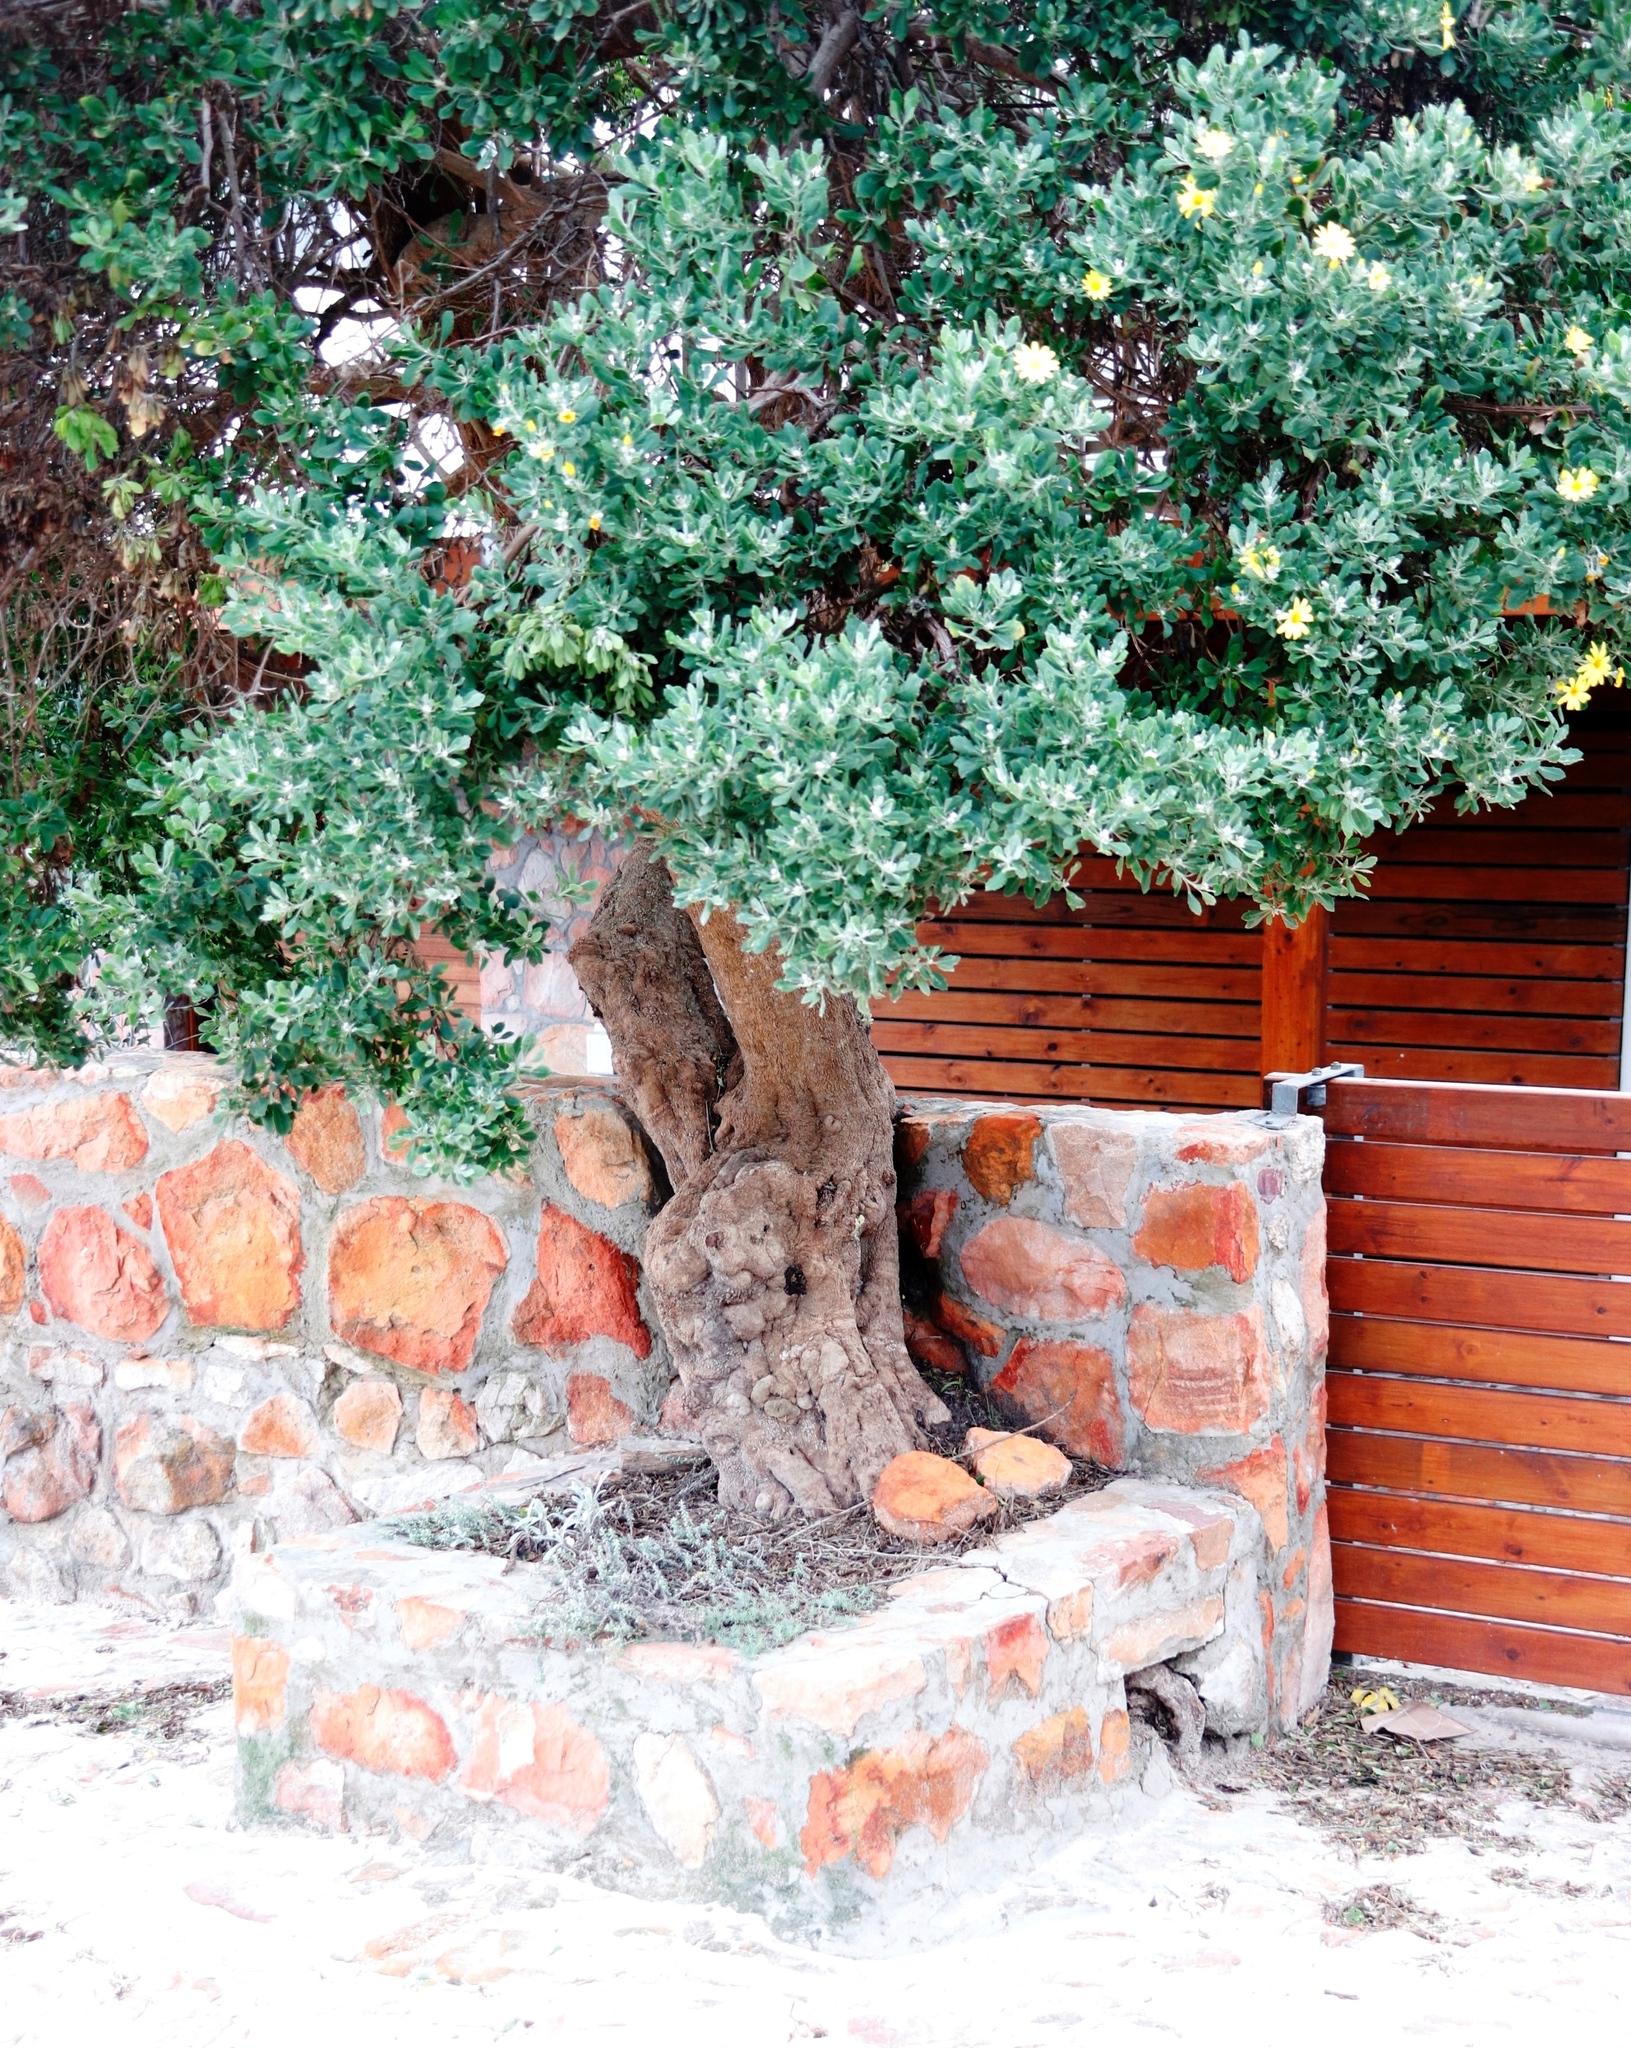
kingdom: Plantae
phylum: Tracheophyta
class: Magnoliopsida
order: Asterales
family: Asteraceae
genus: Osteospermum
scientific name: Osteospermum moniliferum
